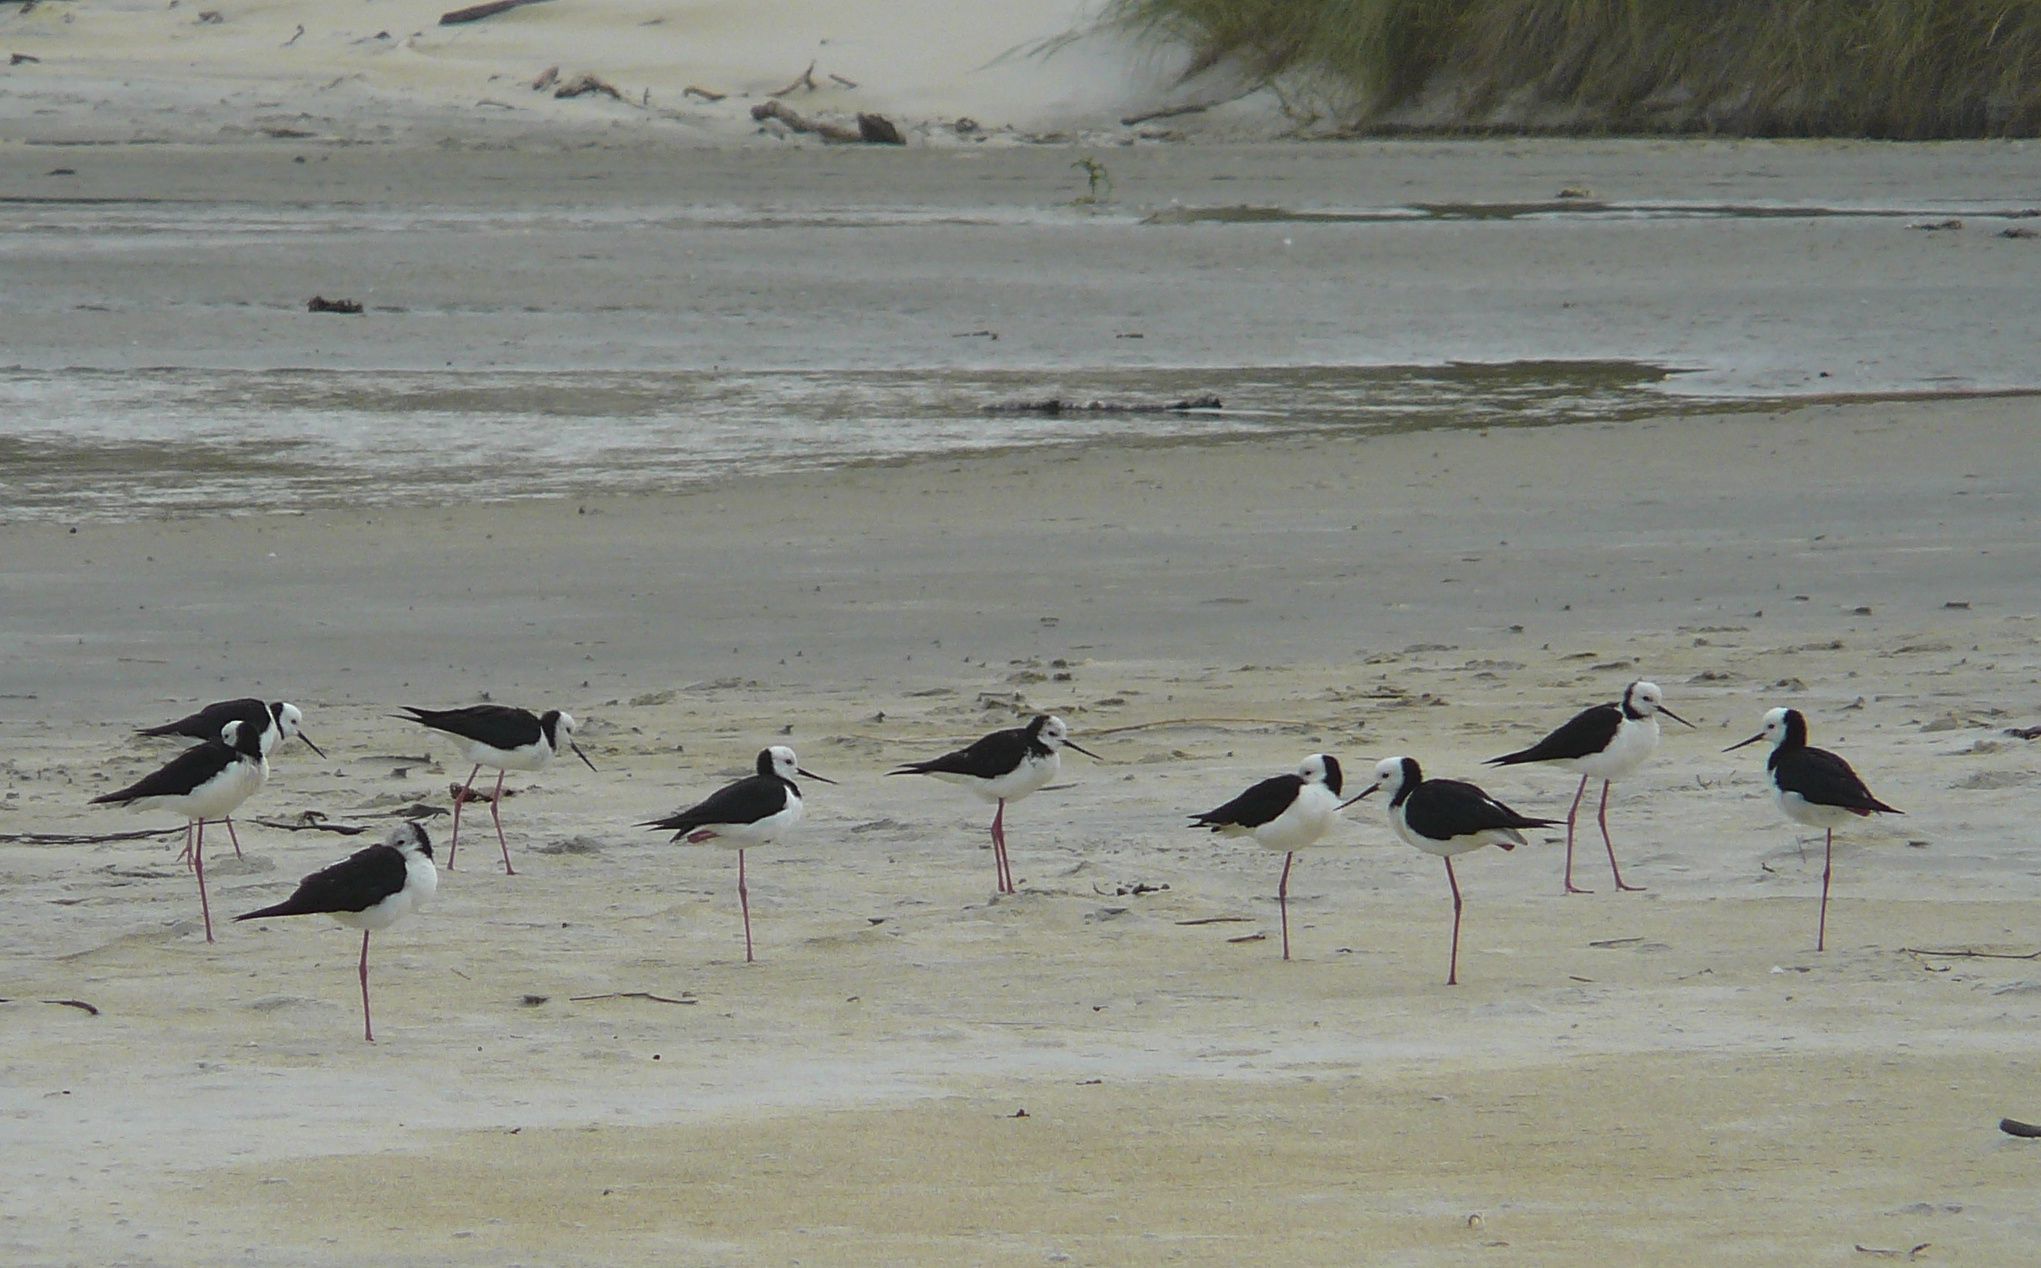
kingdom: Animalia
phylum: Chordata
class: Aves
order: Charadriiformes
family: Recurvirostridae
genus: Himantopus
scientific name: Himantopus leucocephalus
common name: White-headed stilt
